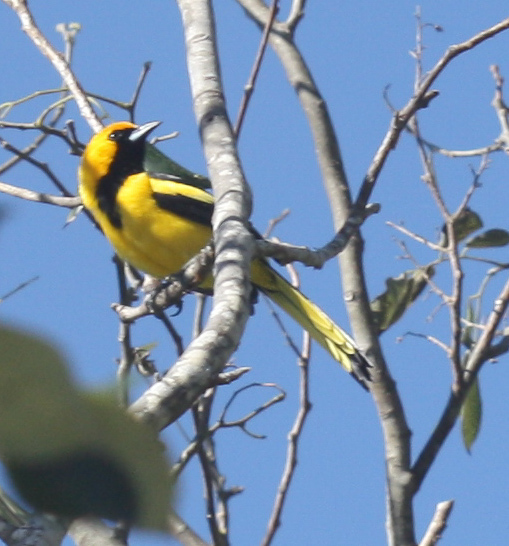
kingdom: Animalia
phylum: Chordata
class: Aves
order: Passeriformes
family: Icteridae
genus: Icterus
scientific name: Icterus mesomelas
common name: Yellow-tailed oriole
